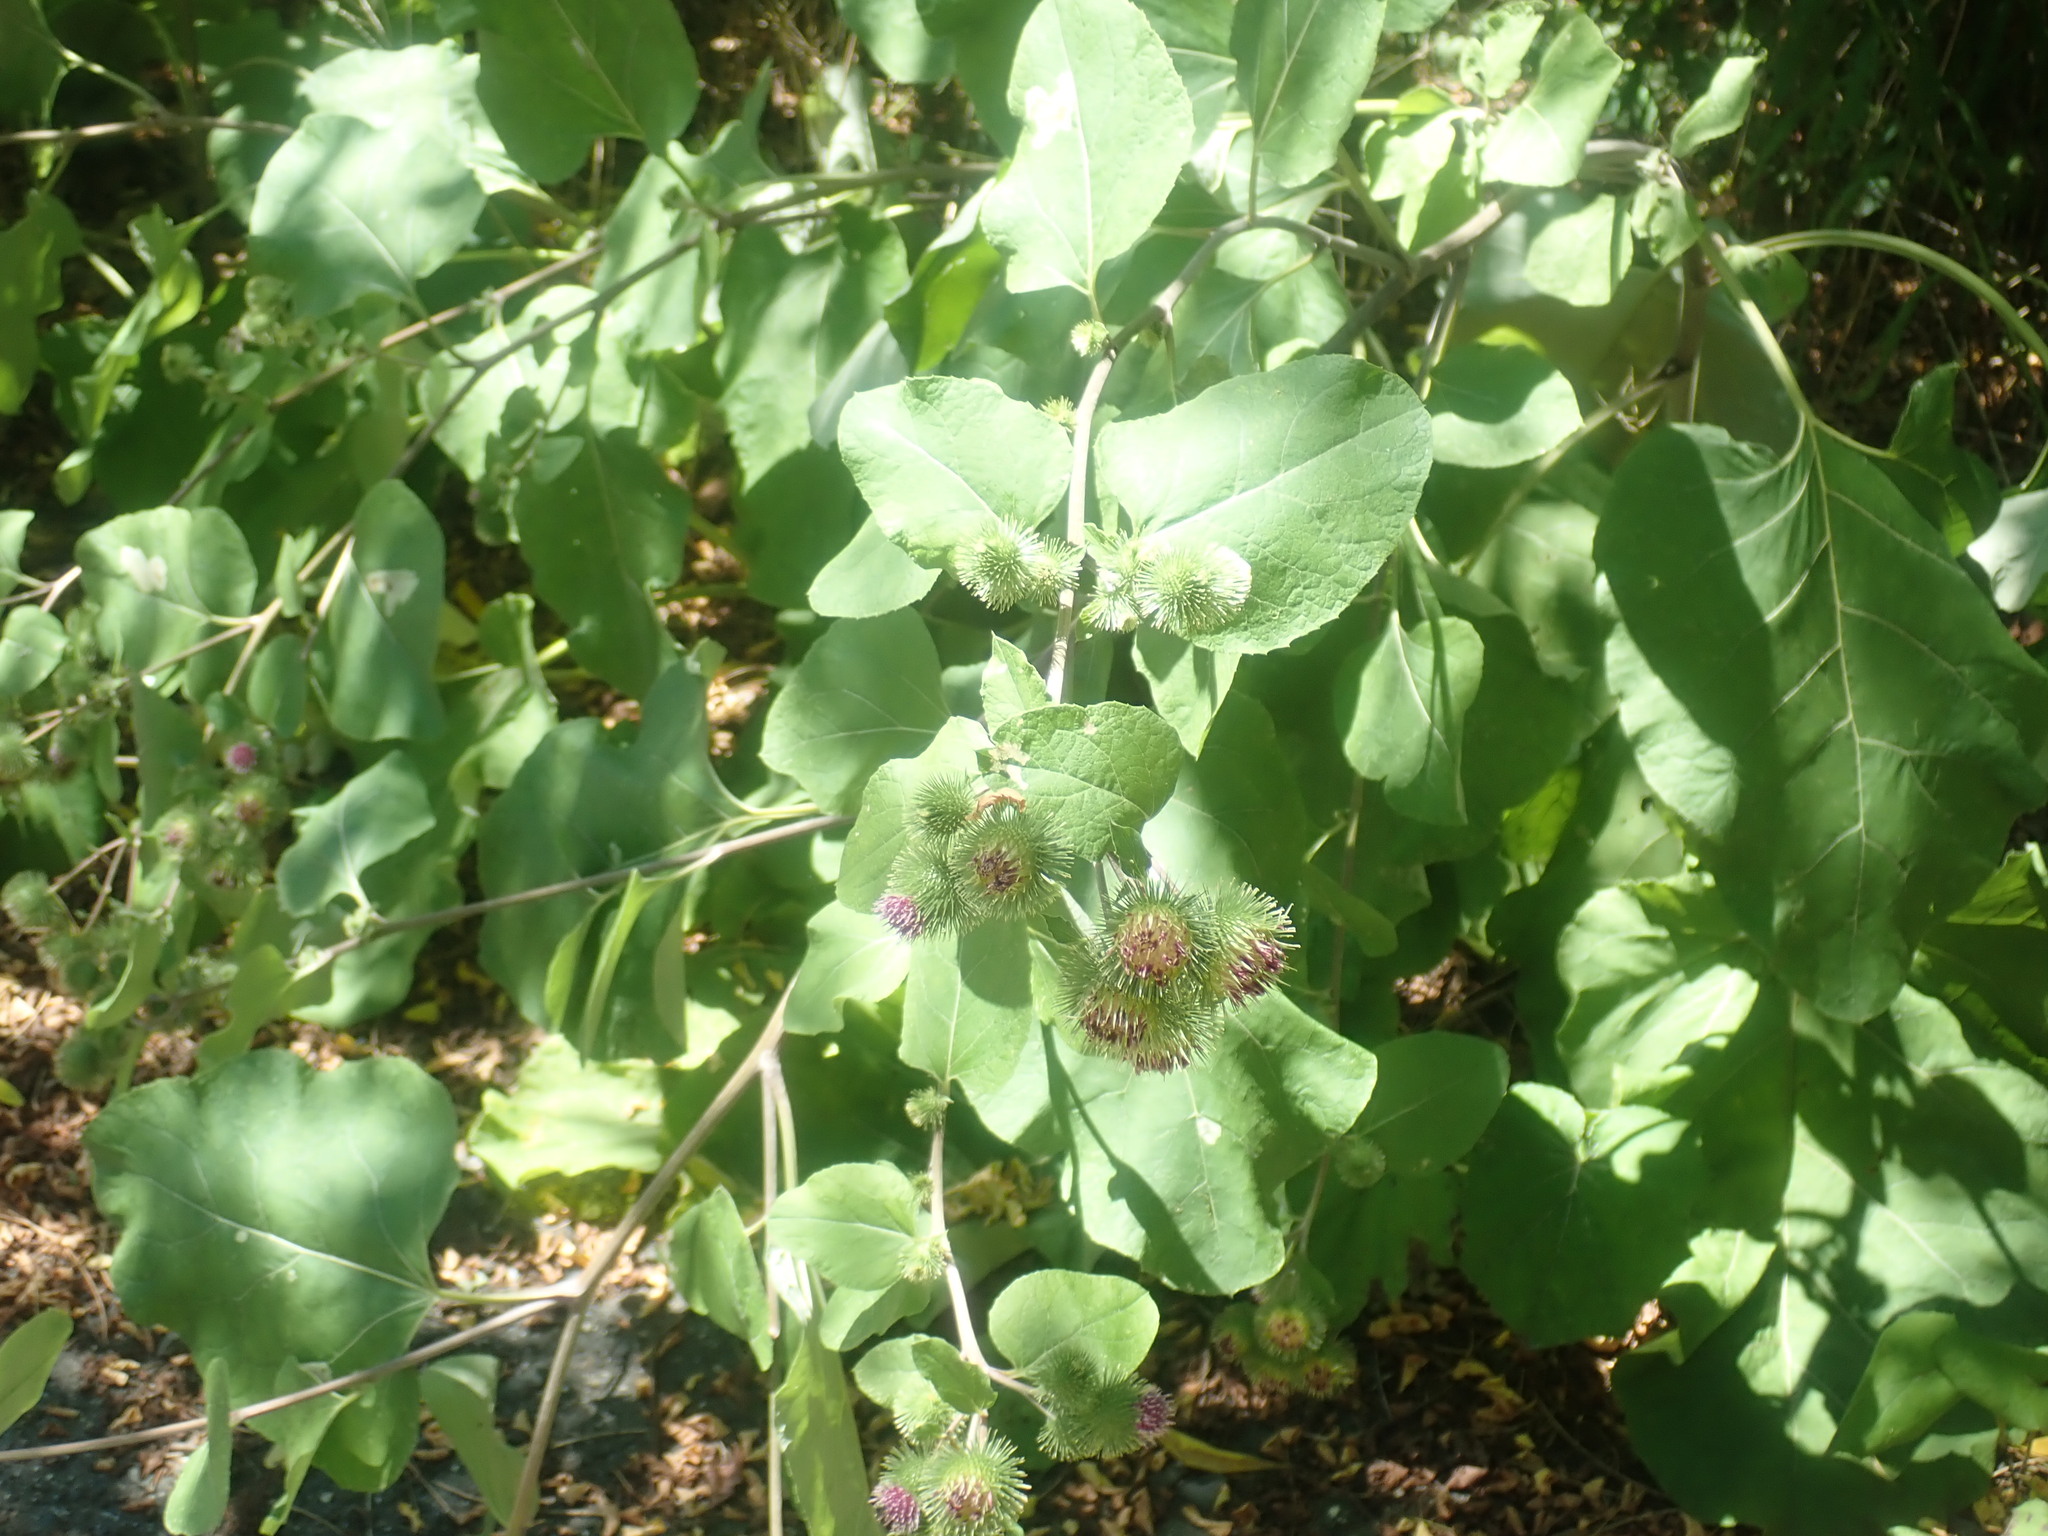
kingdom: Plantae
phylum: Tracheophyta
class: Magnoliopsida
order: Asterales
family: Asteraceae
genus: Arctium
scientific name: Arctium
